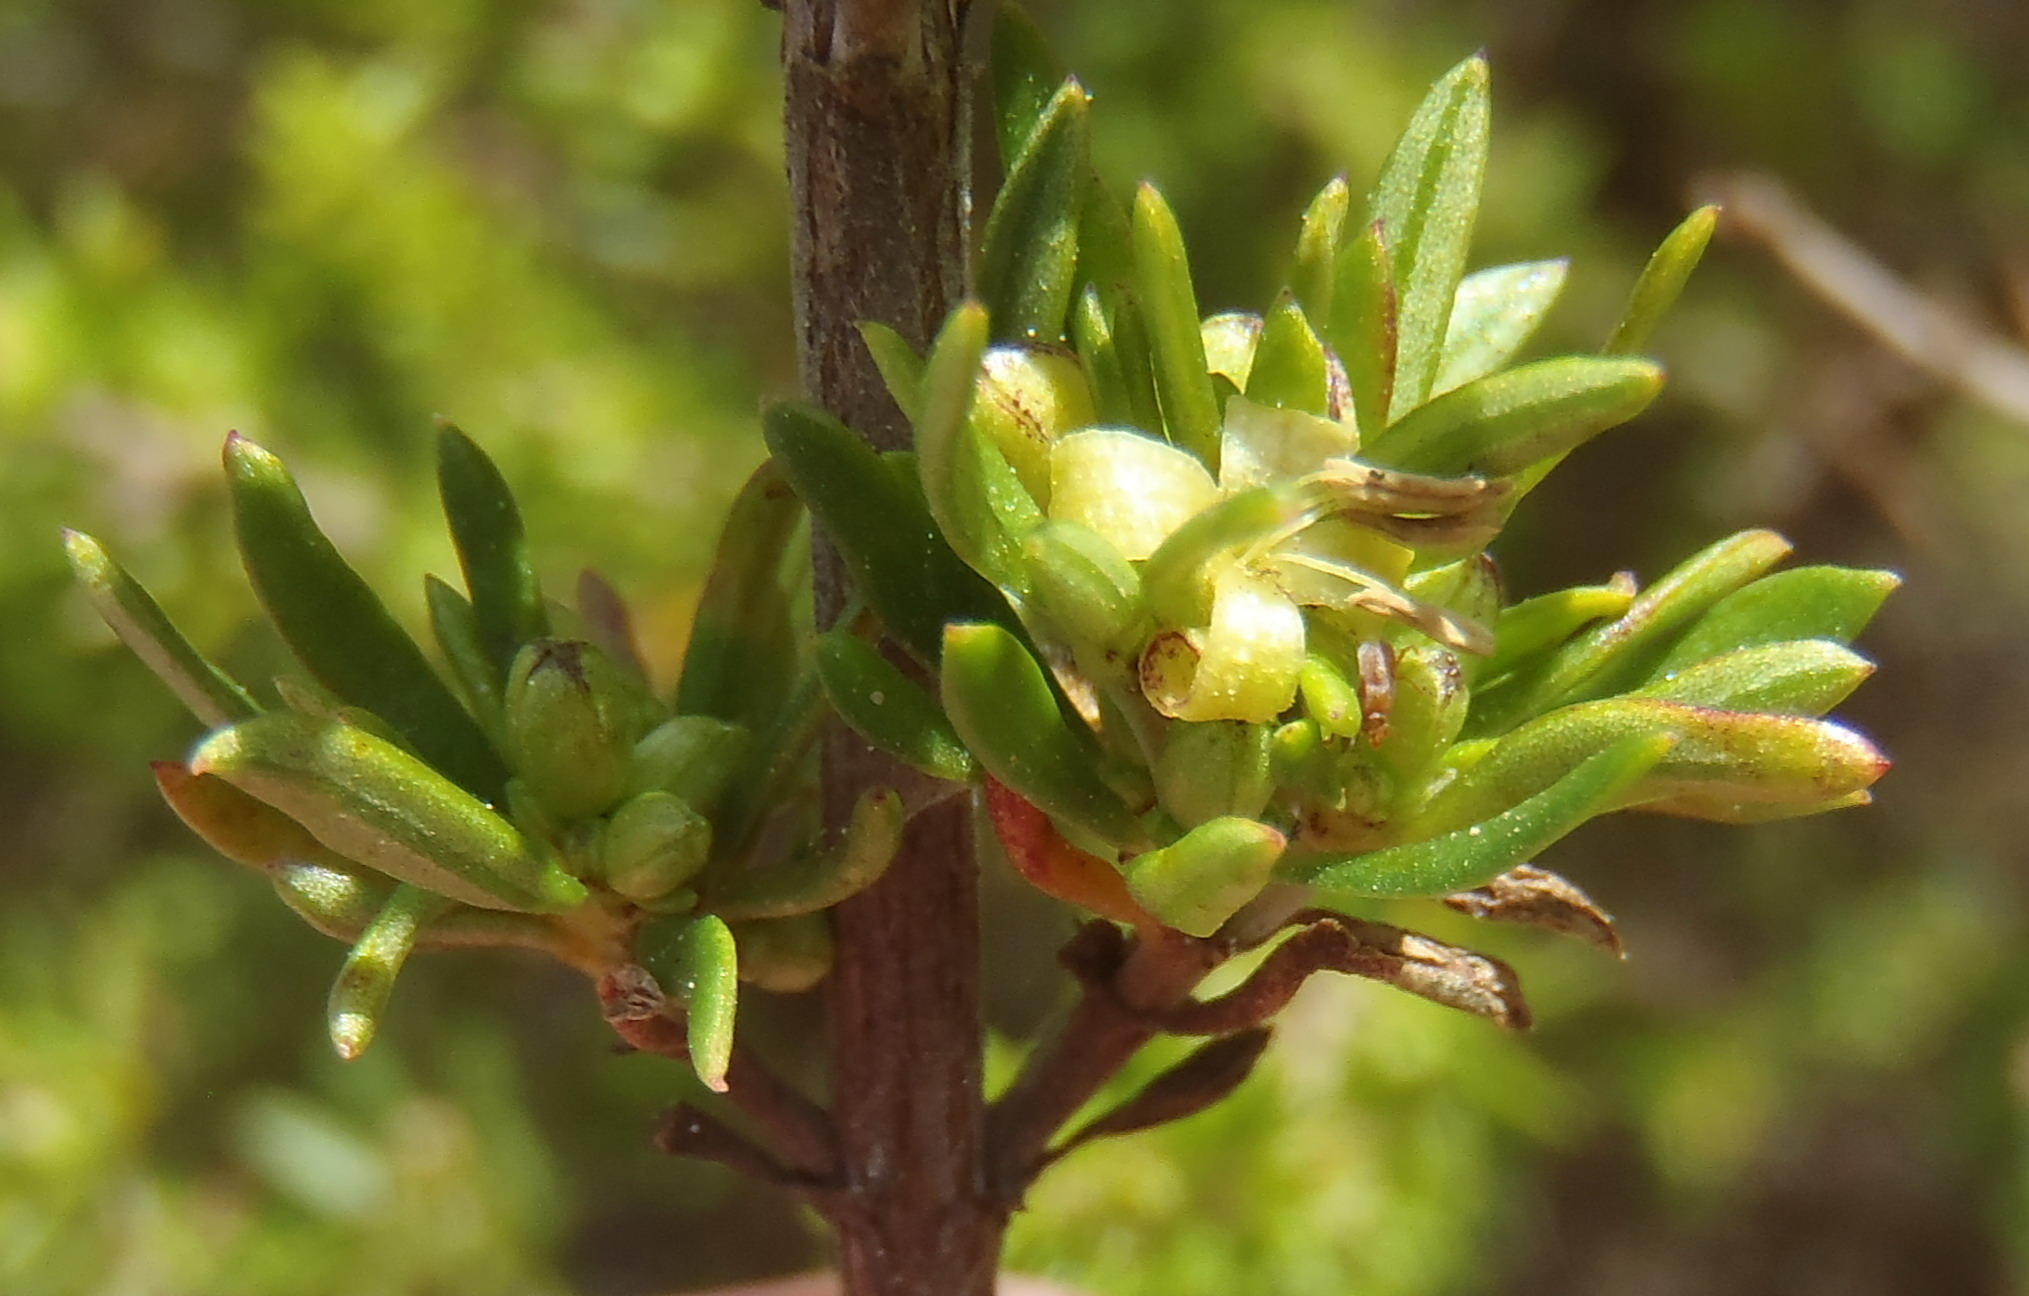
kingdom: Plantae
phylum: Tracheophyta
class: Magnoliopsida
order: Gentianales
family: Rubiaceae
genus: Anthospermum
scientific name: Anthospermum aethiopicum
